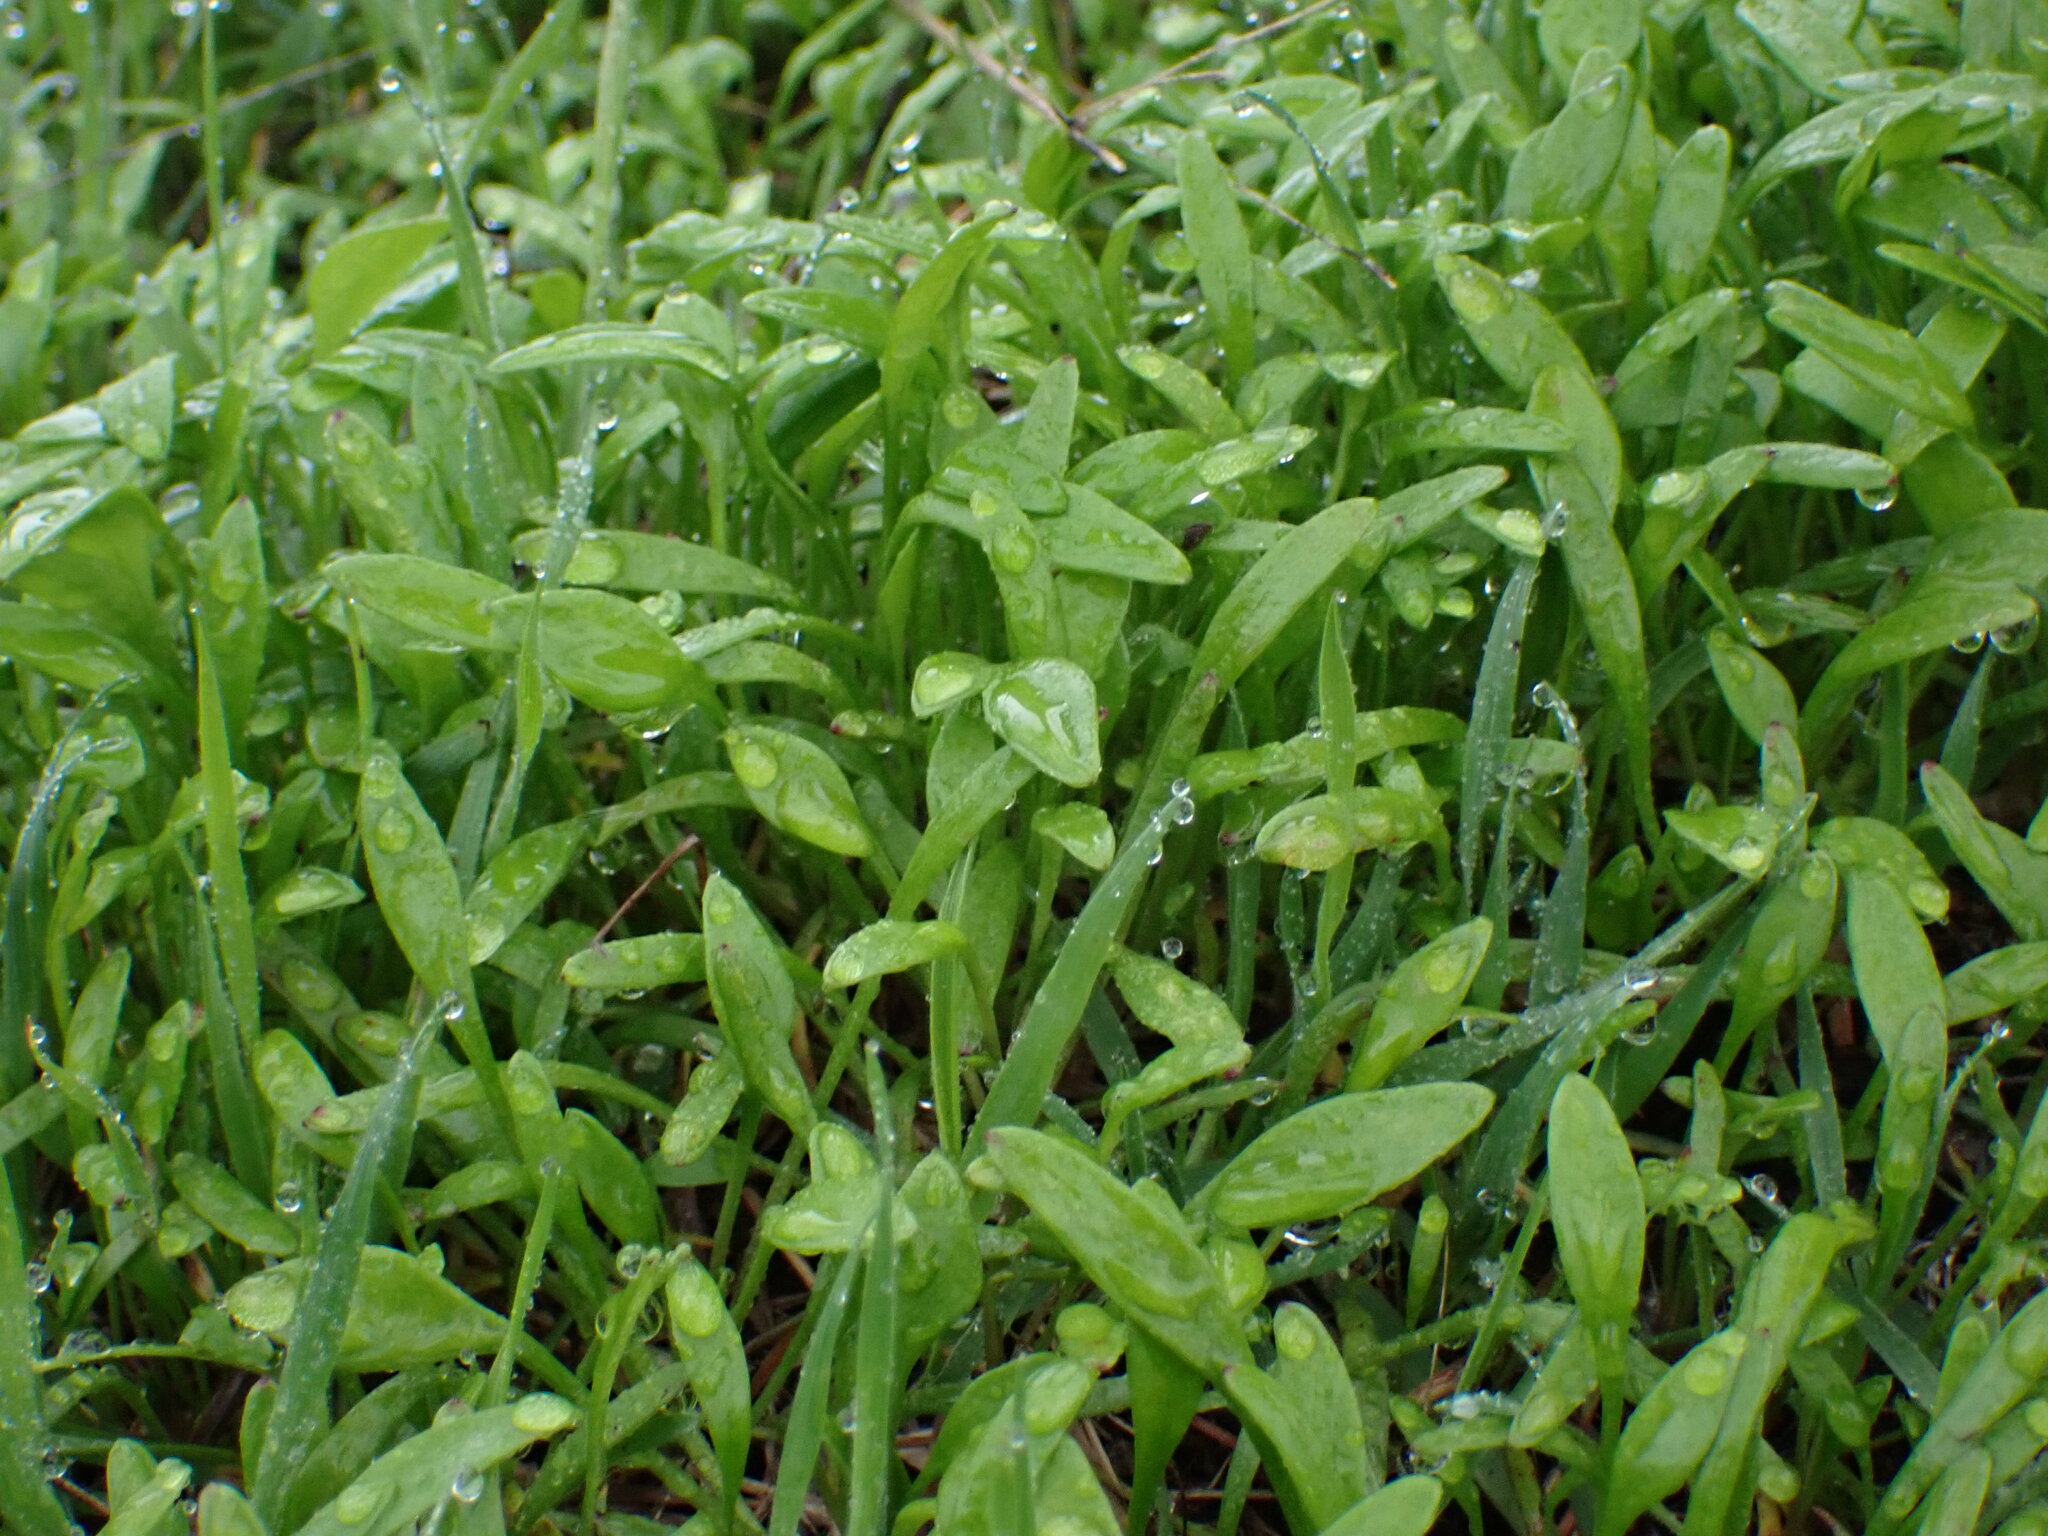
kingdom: Plantae
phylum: Tracheophyta
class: Magnoliopsida
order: Caryophyllales
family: Montiaceae
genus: Claytonia
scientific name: Claytonia perfoliata
